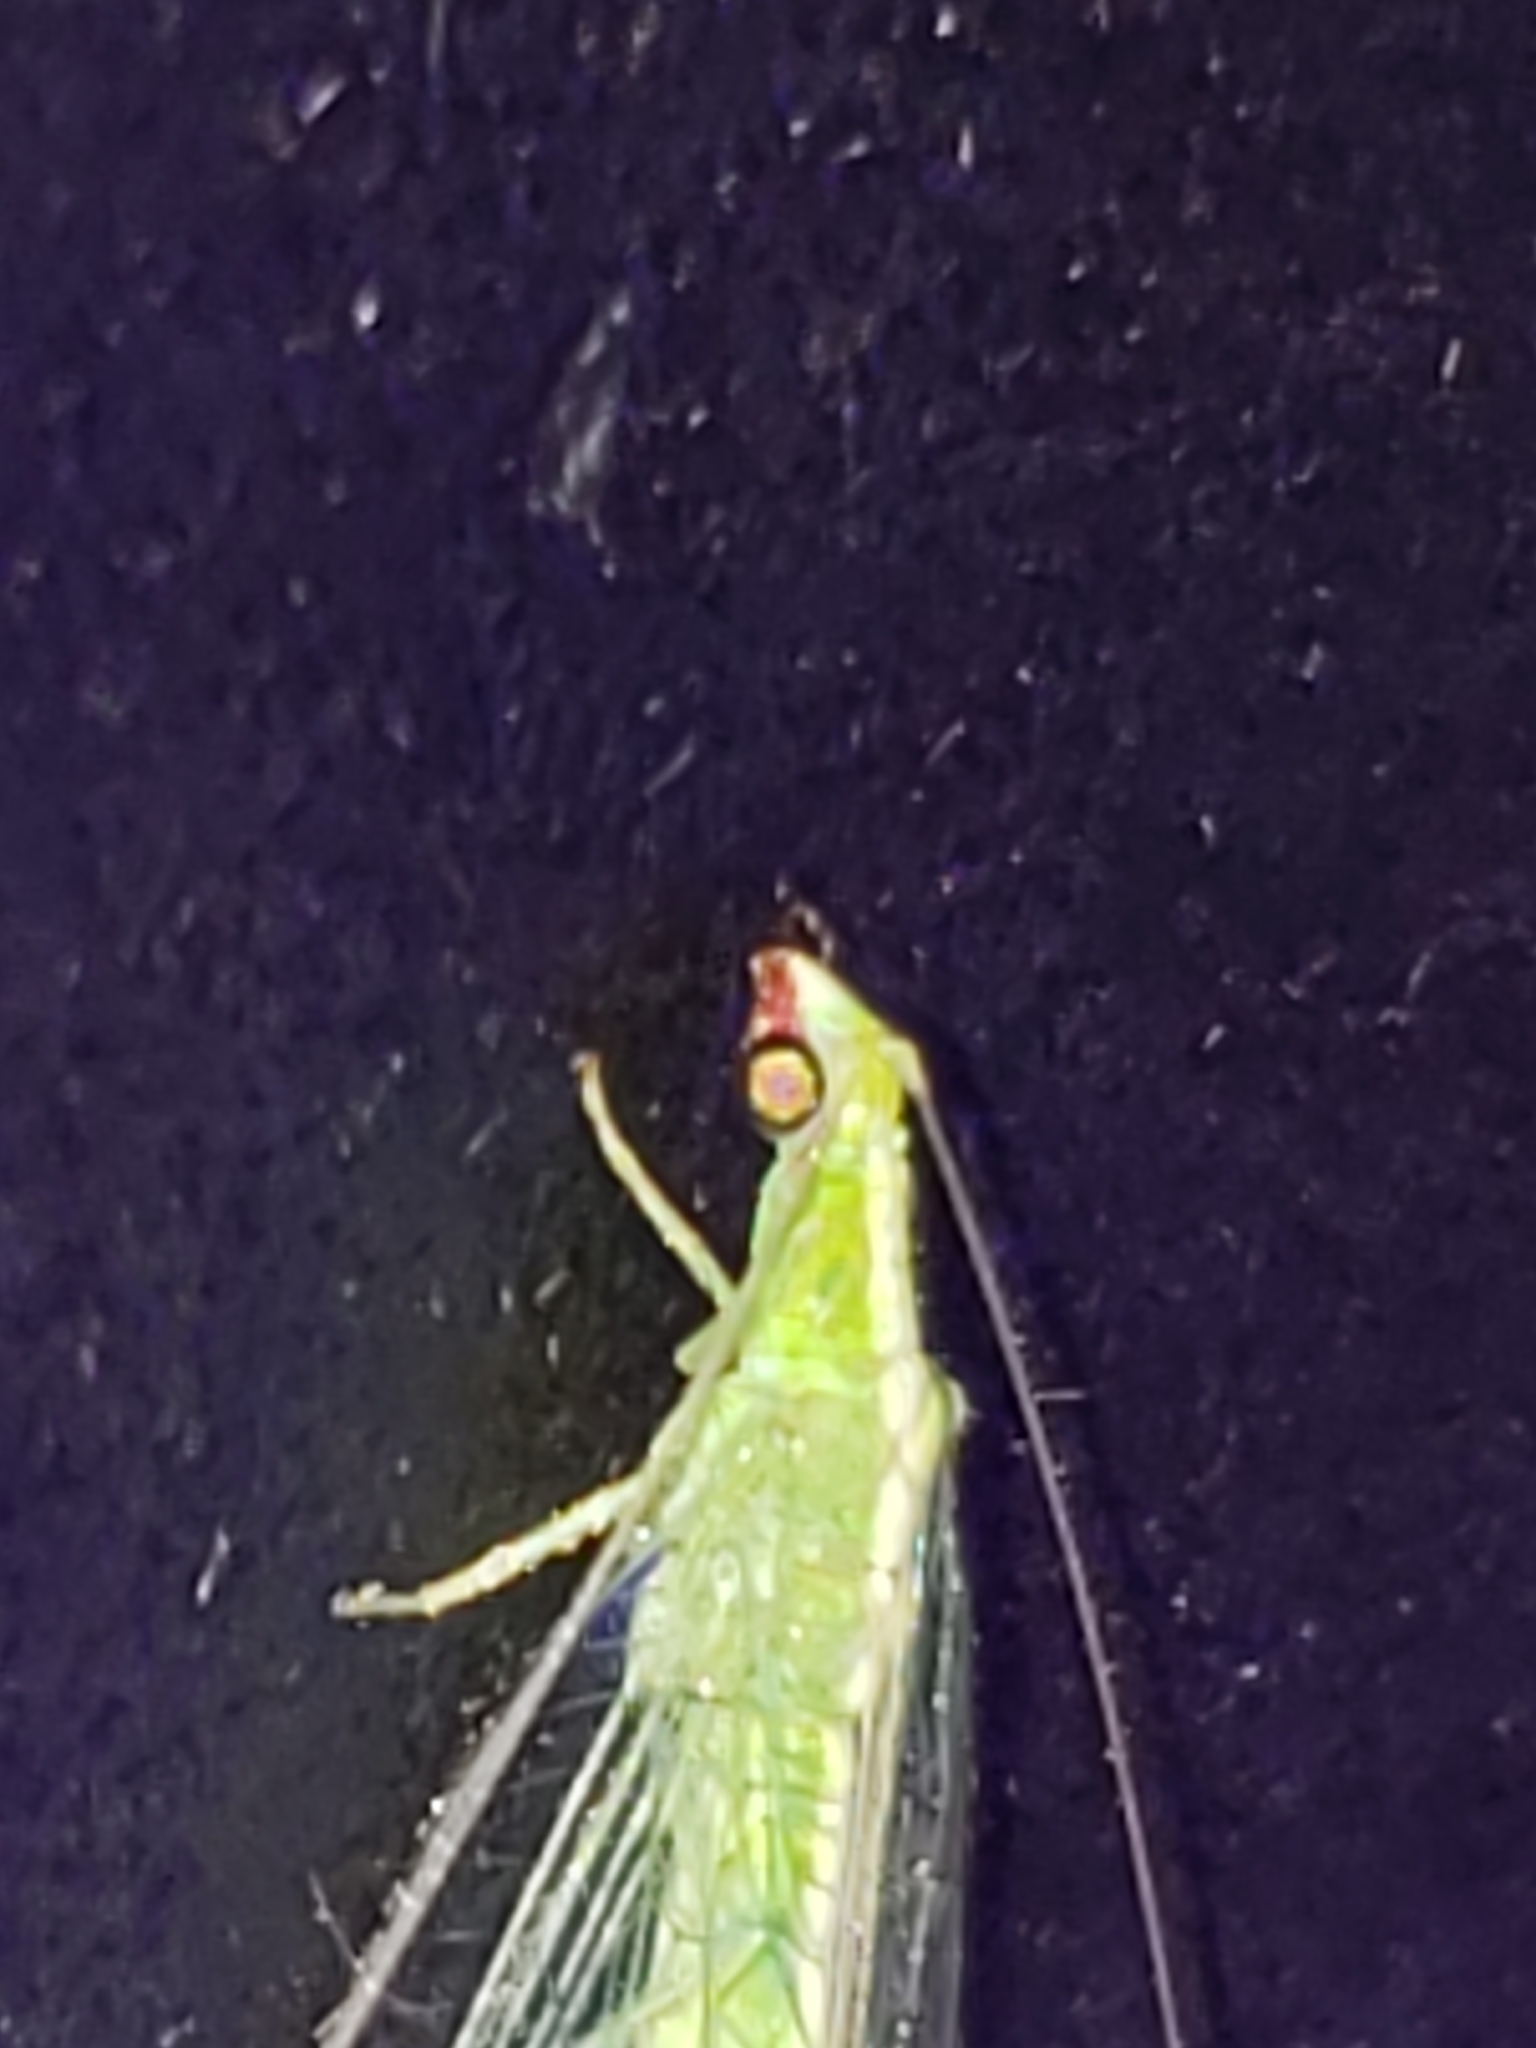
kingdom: Animalia
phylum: Arthropoda
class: Insecta
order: Neuroptera
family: Chrysopidae
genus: Chrysoperla
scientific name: Chrysoperla rufilabris
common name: Red-lipped green lacewing
